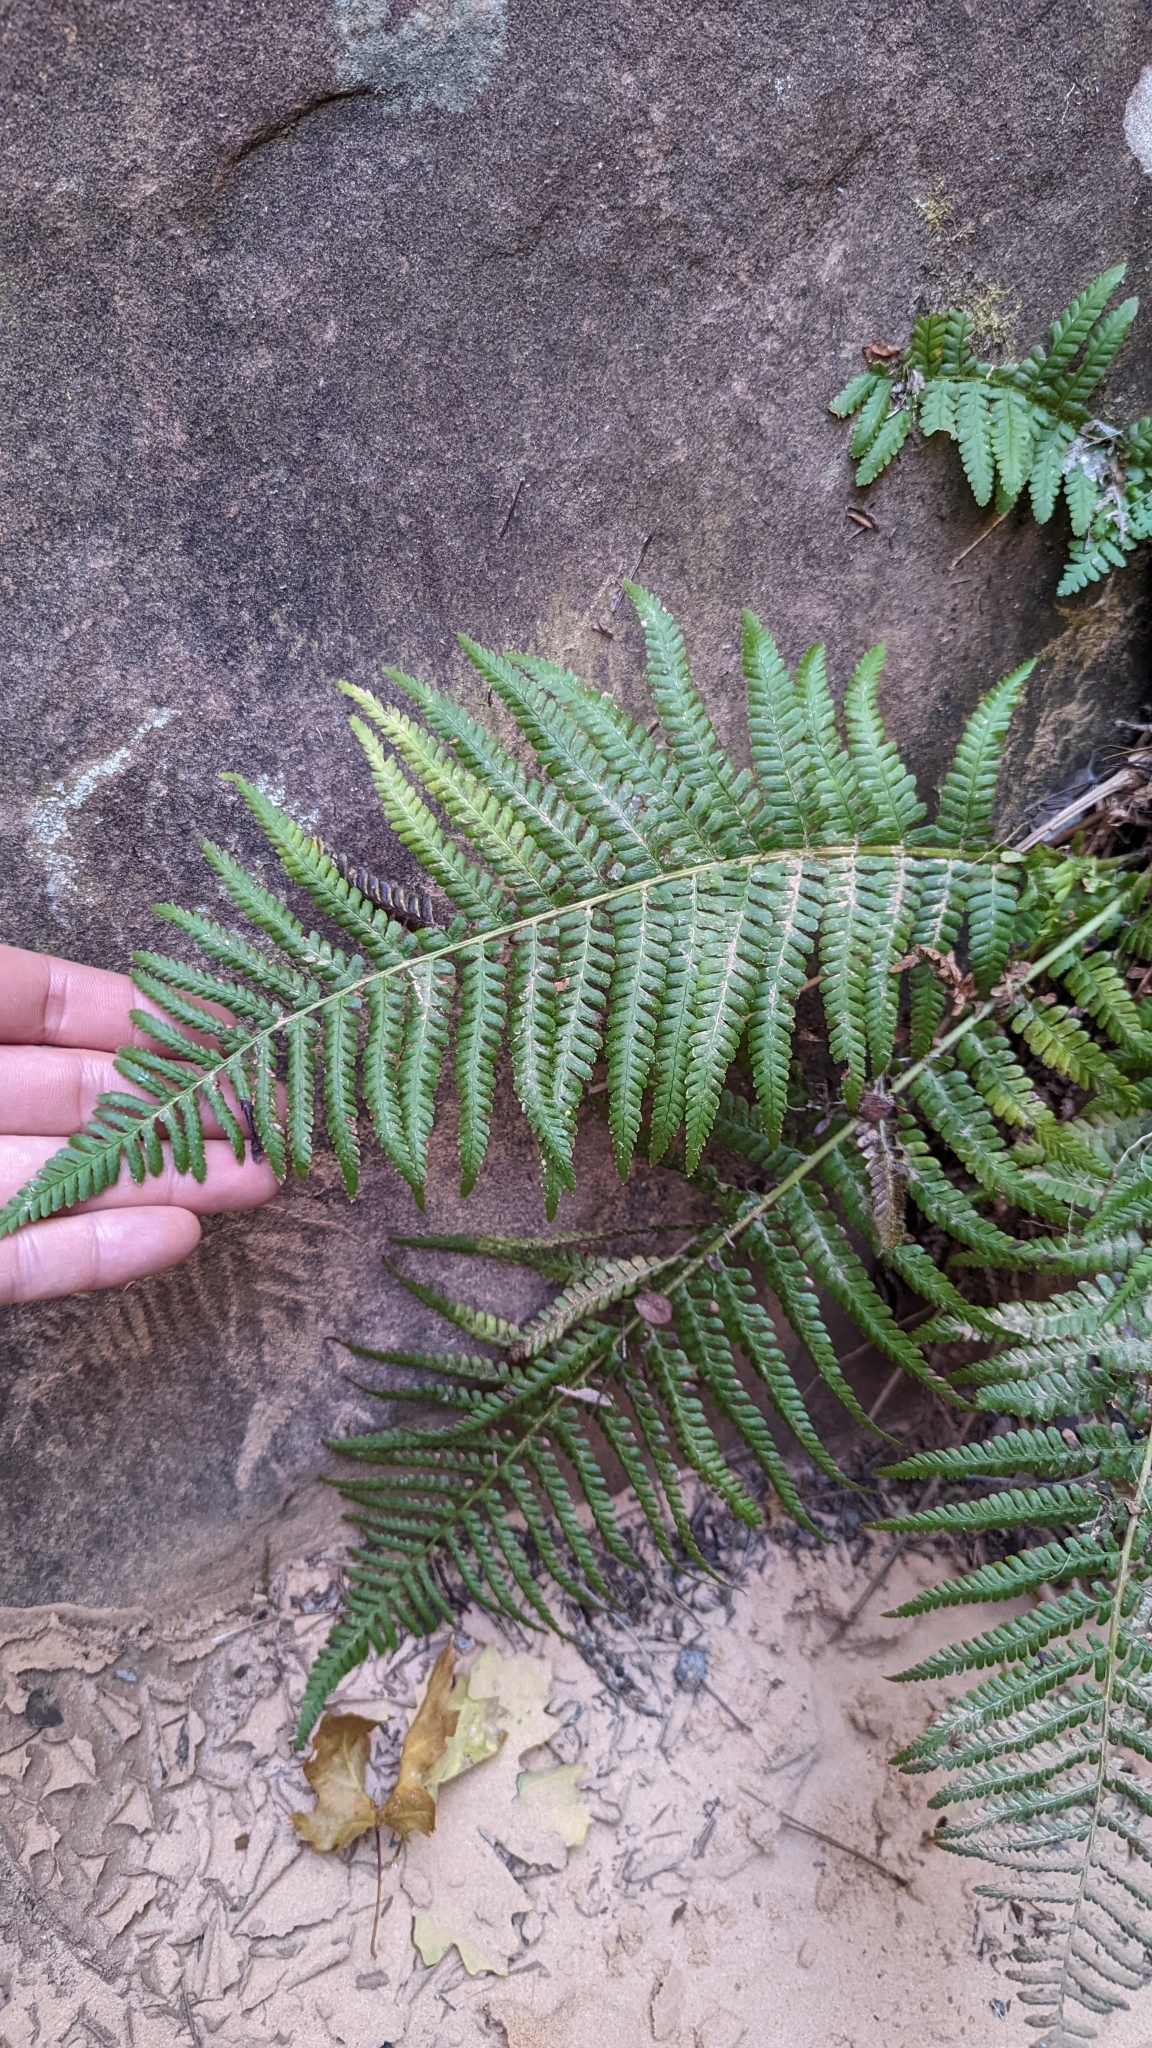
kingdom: Plantae
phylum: Tracheophyta
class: Polypodiopsida
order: Polypodiales
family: Dryopteridaceae
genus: Dryopteris
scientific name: Dryopteris filix-mas
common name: Male fern
